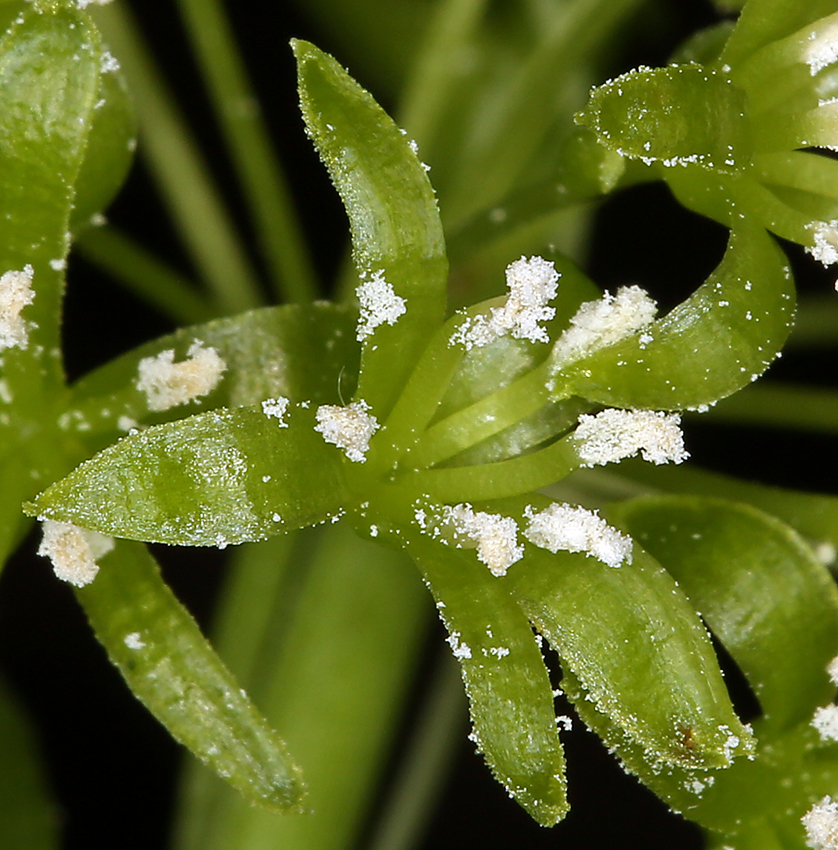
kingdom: Plantae
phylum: Tracheophyta
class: Liliopsida
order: Liliales
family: Smilacaceae
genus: Smilax
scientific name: Smilax californica
